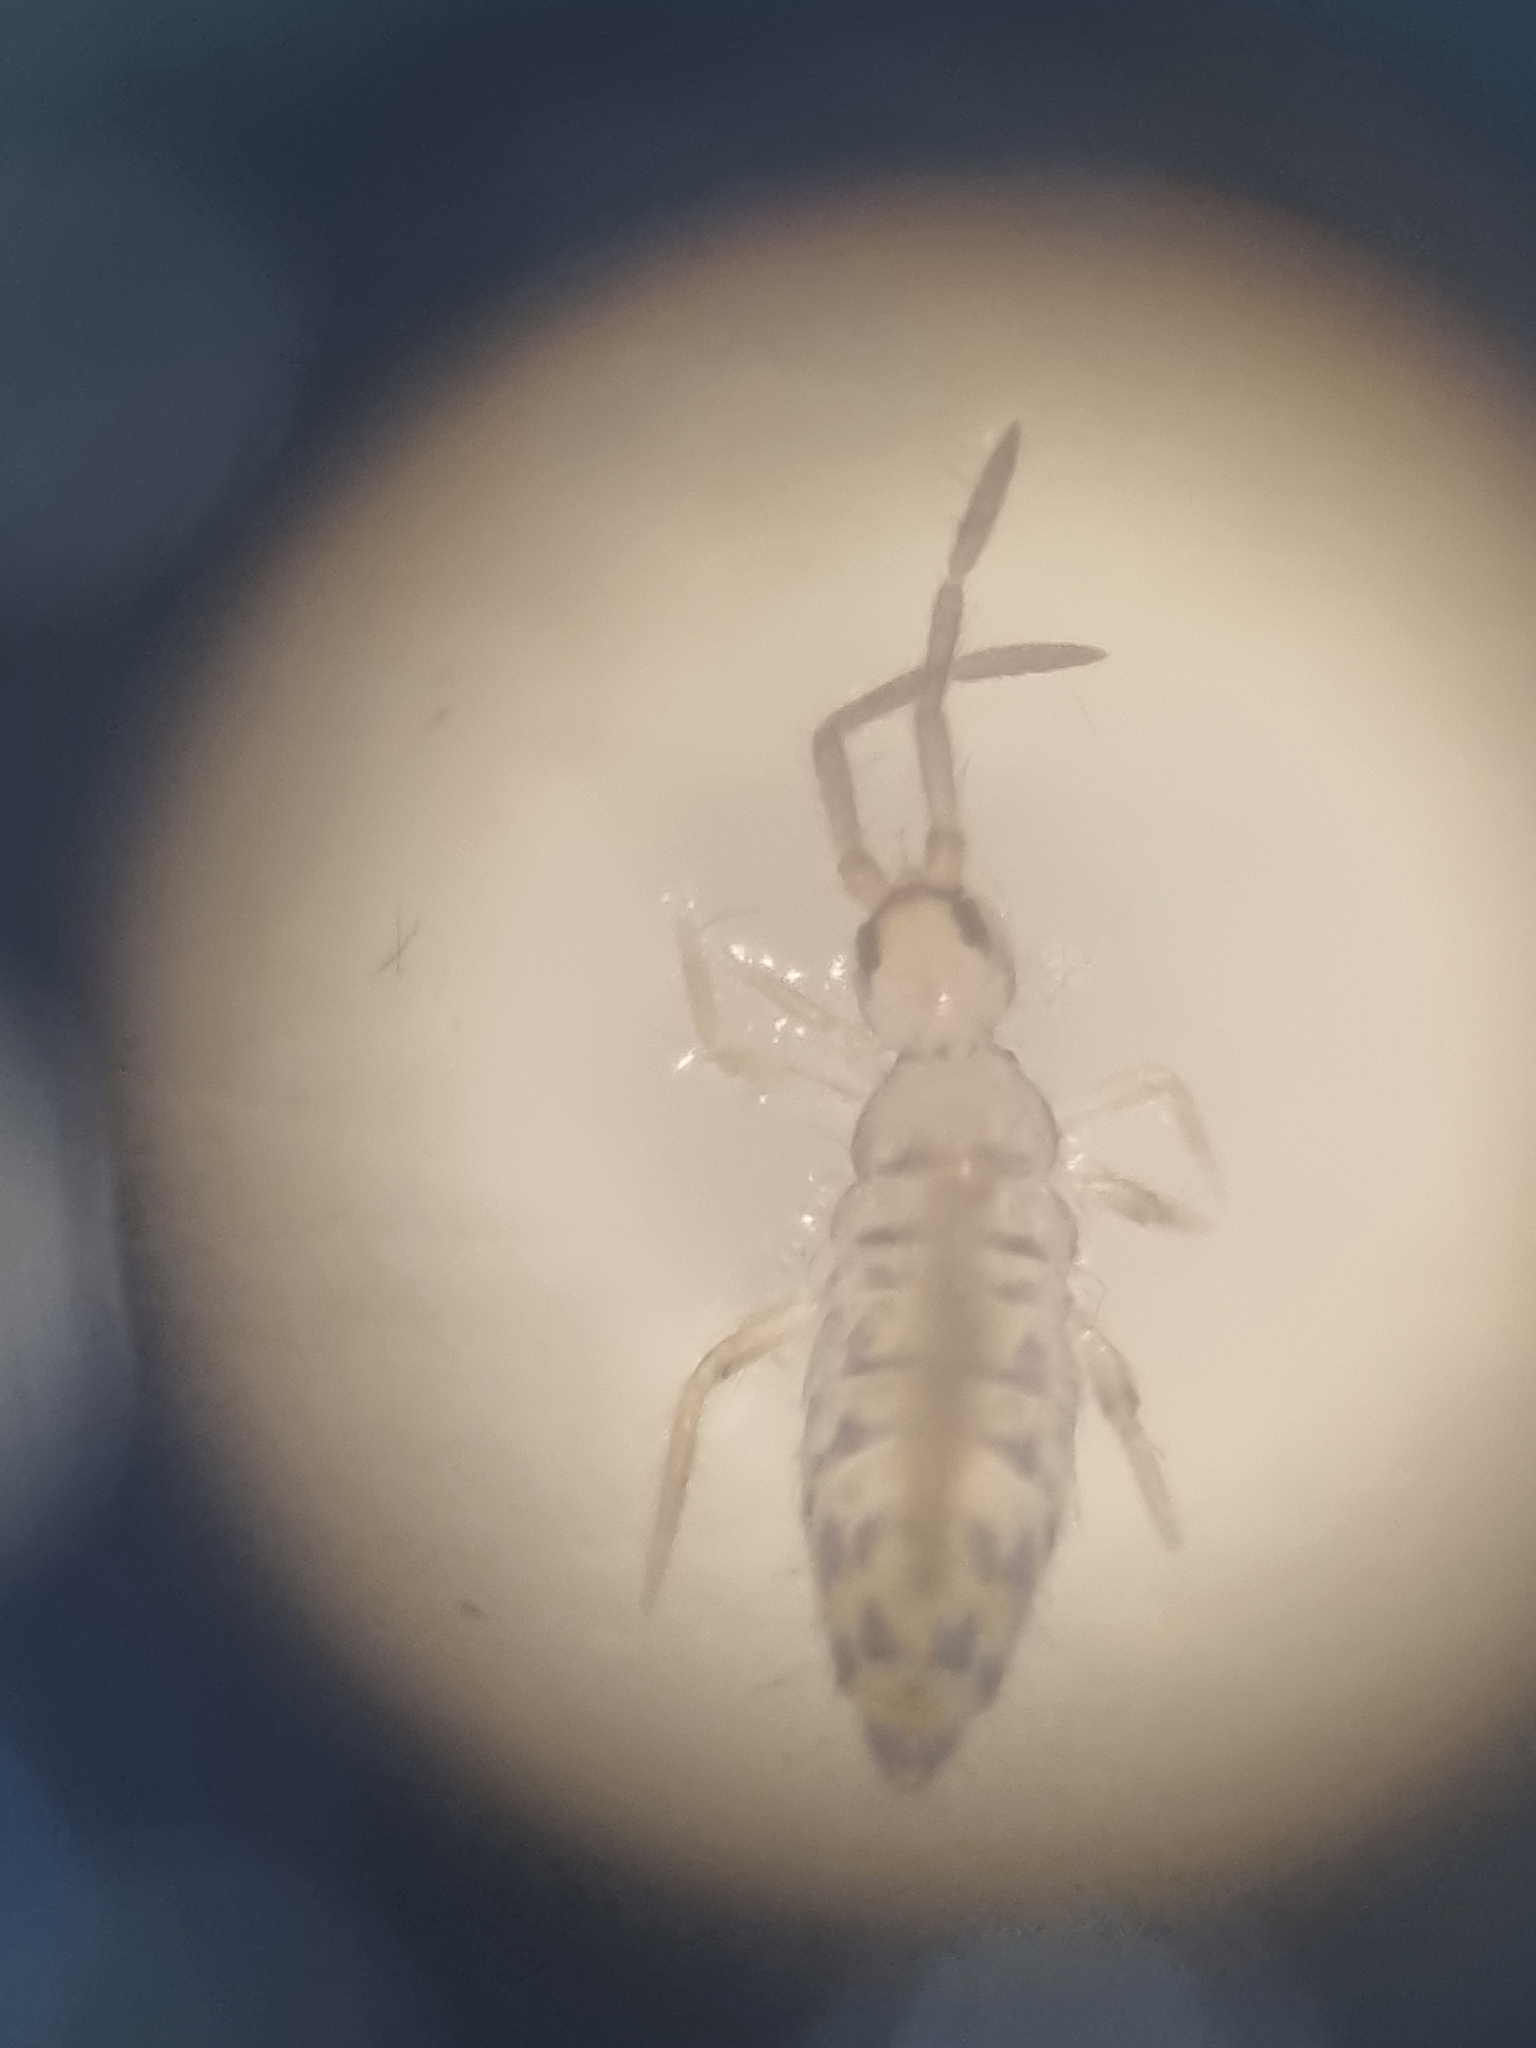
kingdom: Animalia
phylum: Arthropoda
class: Collembola
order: Entomobryomorpha
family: Entomobryidae
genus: Entomobrya
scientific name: Entomobrya multifasciata
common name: Springtail
